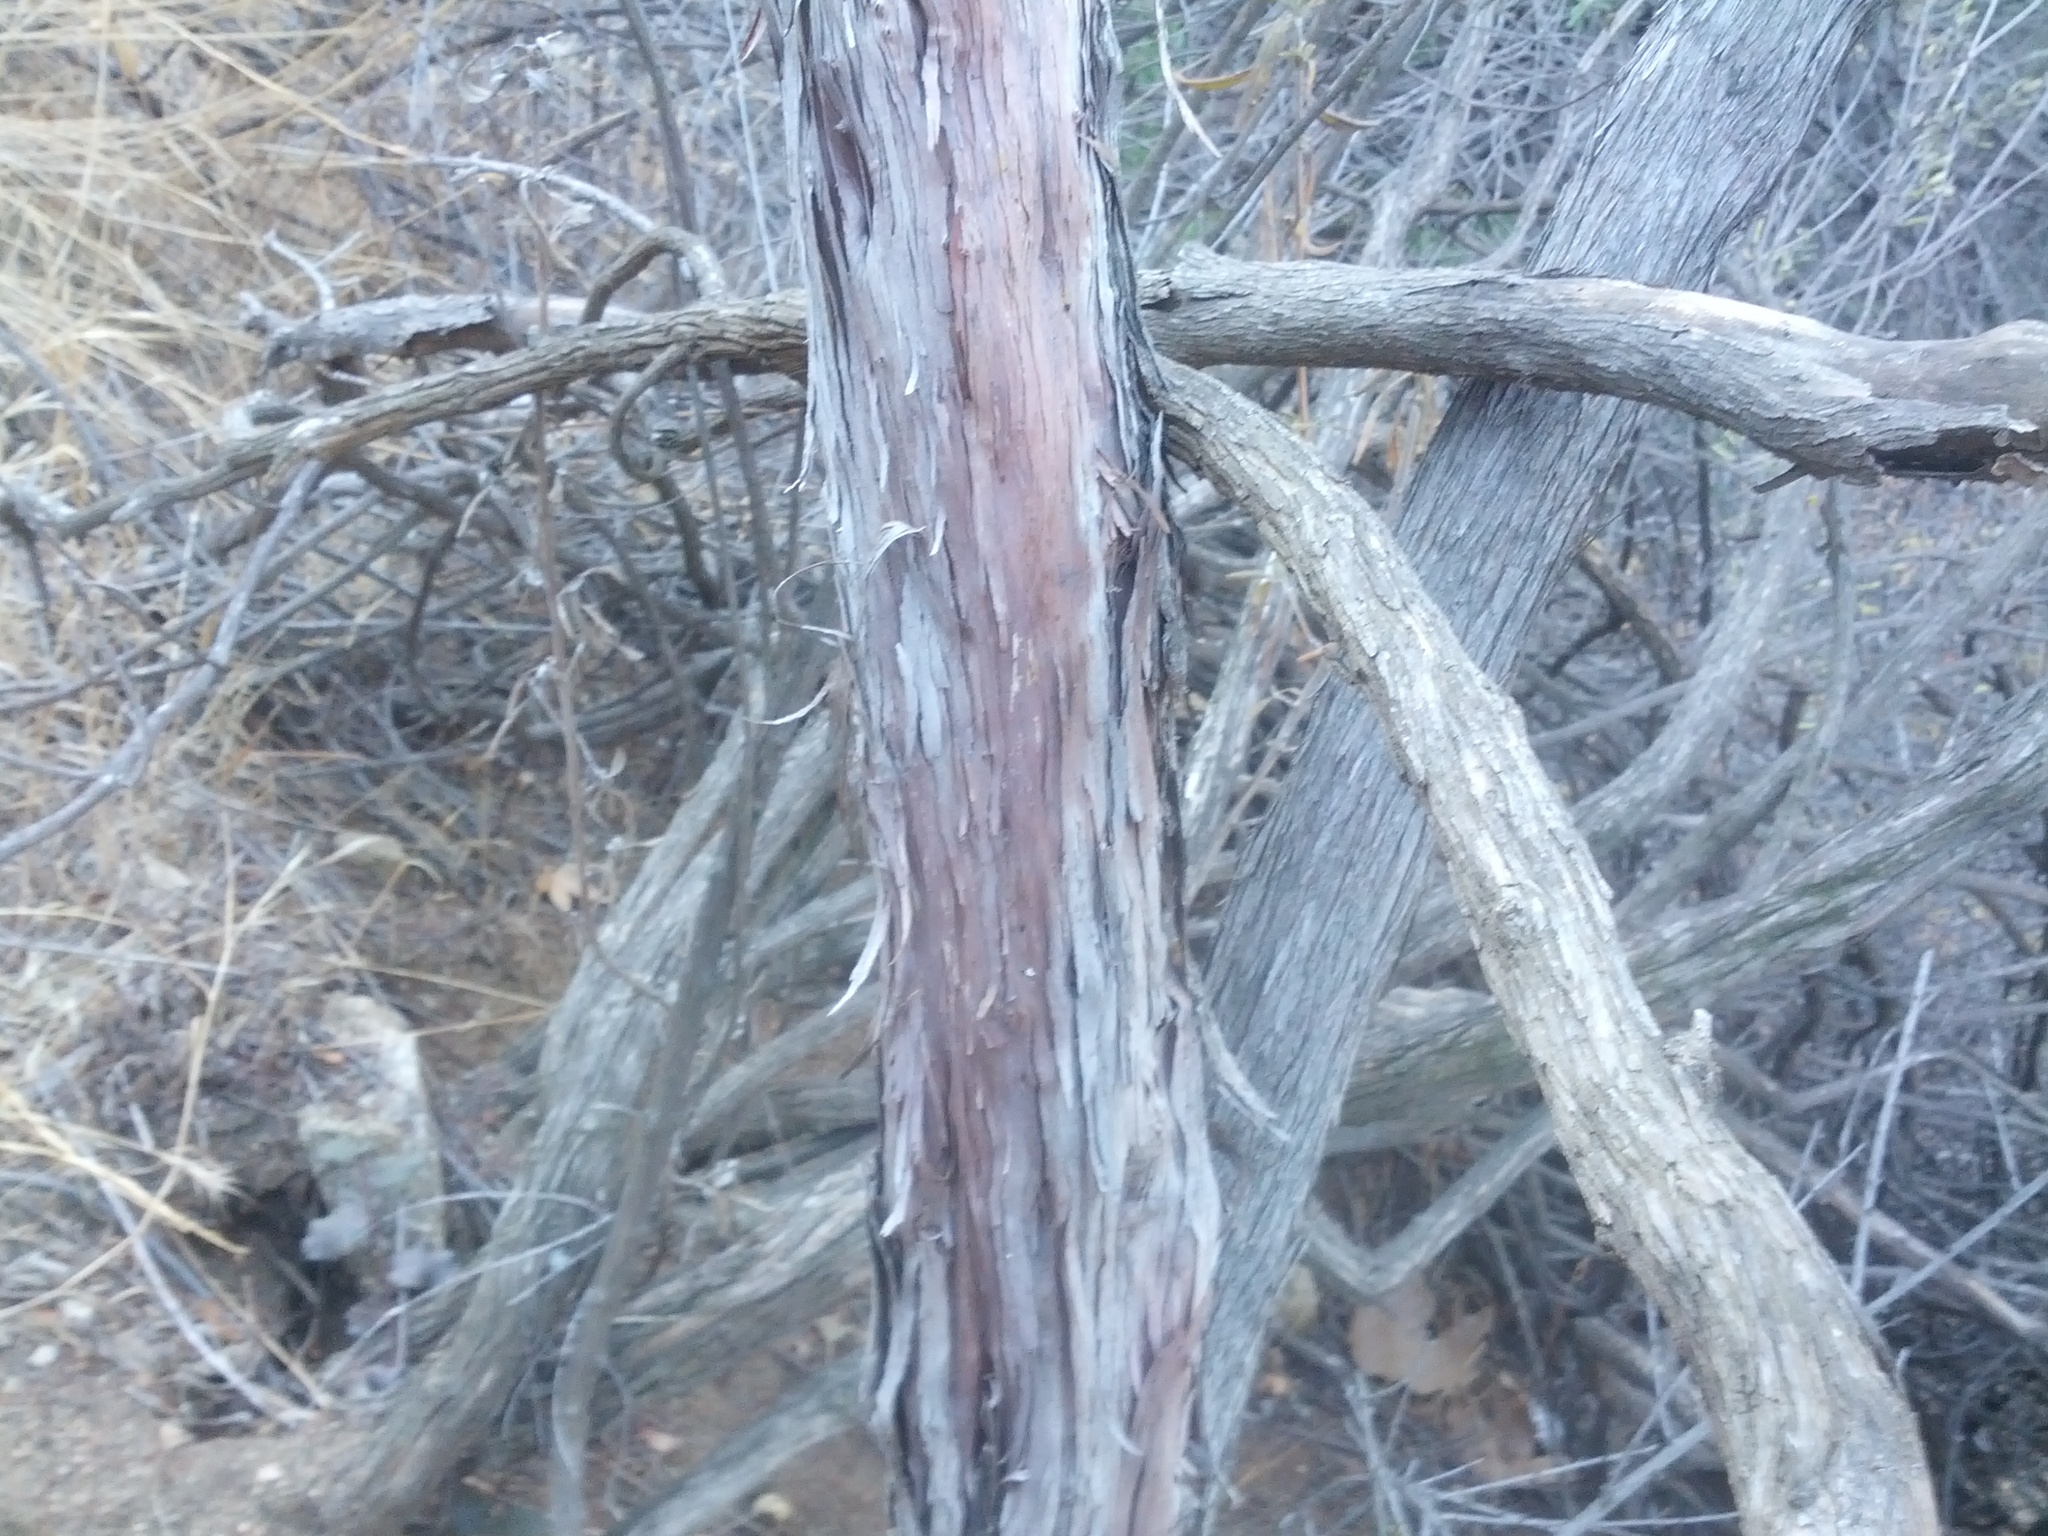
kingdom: Plantae
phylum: Tracheophyta
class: Magnoliopsida
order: Rosales
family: Rosaceae
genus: Adenostoma
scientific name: Adenostoma fasciculatum
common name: Chamise
